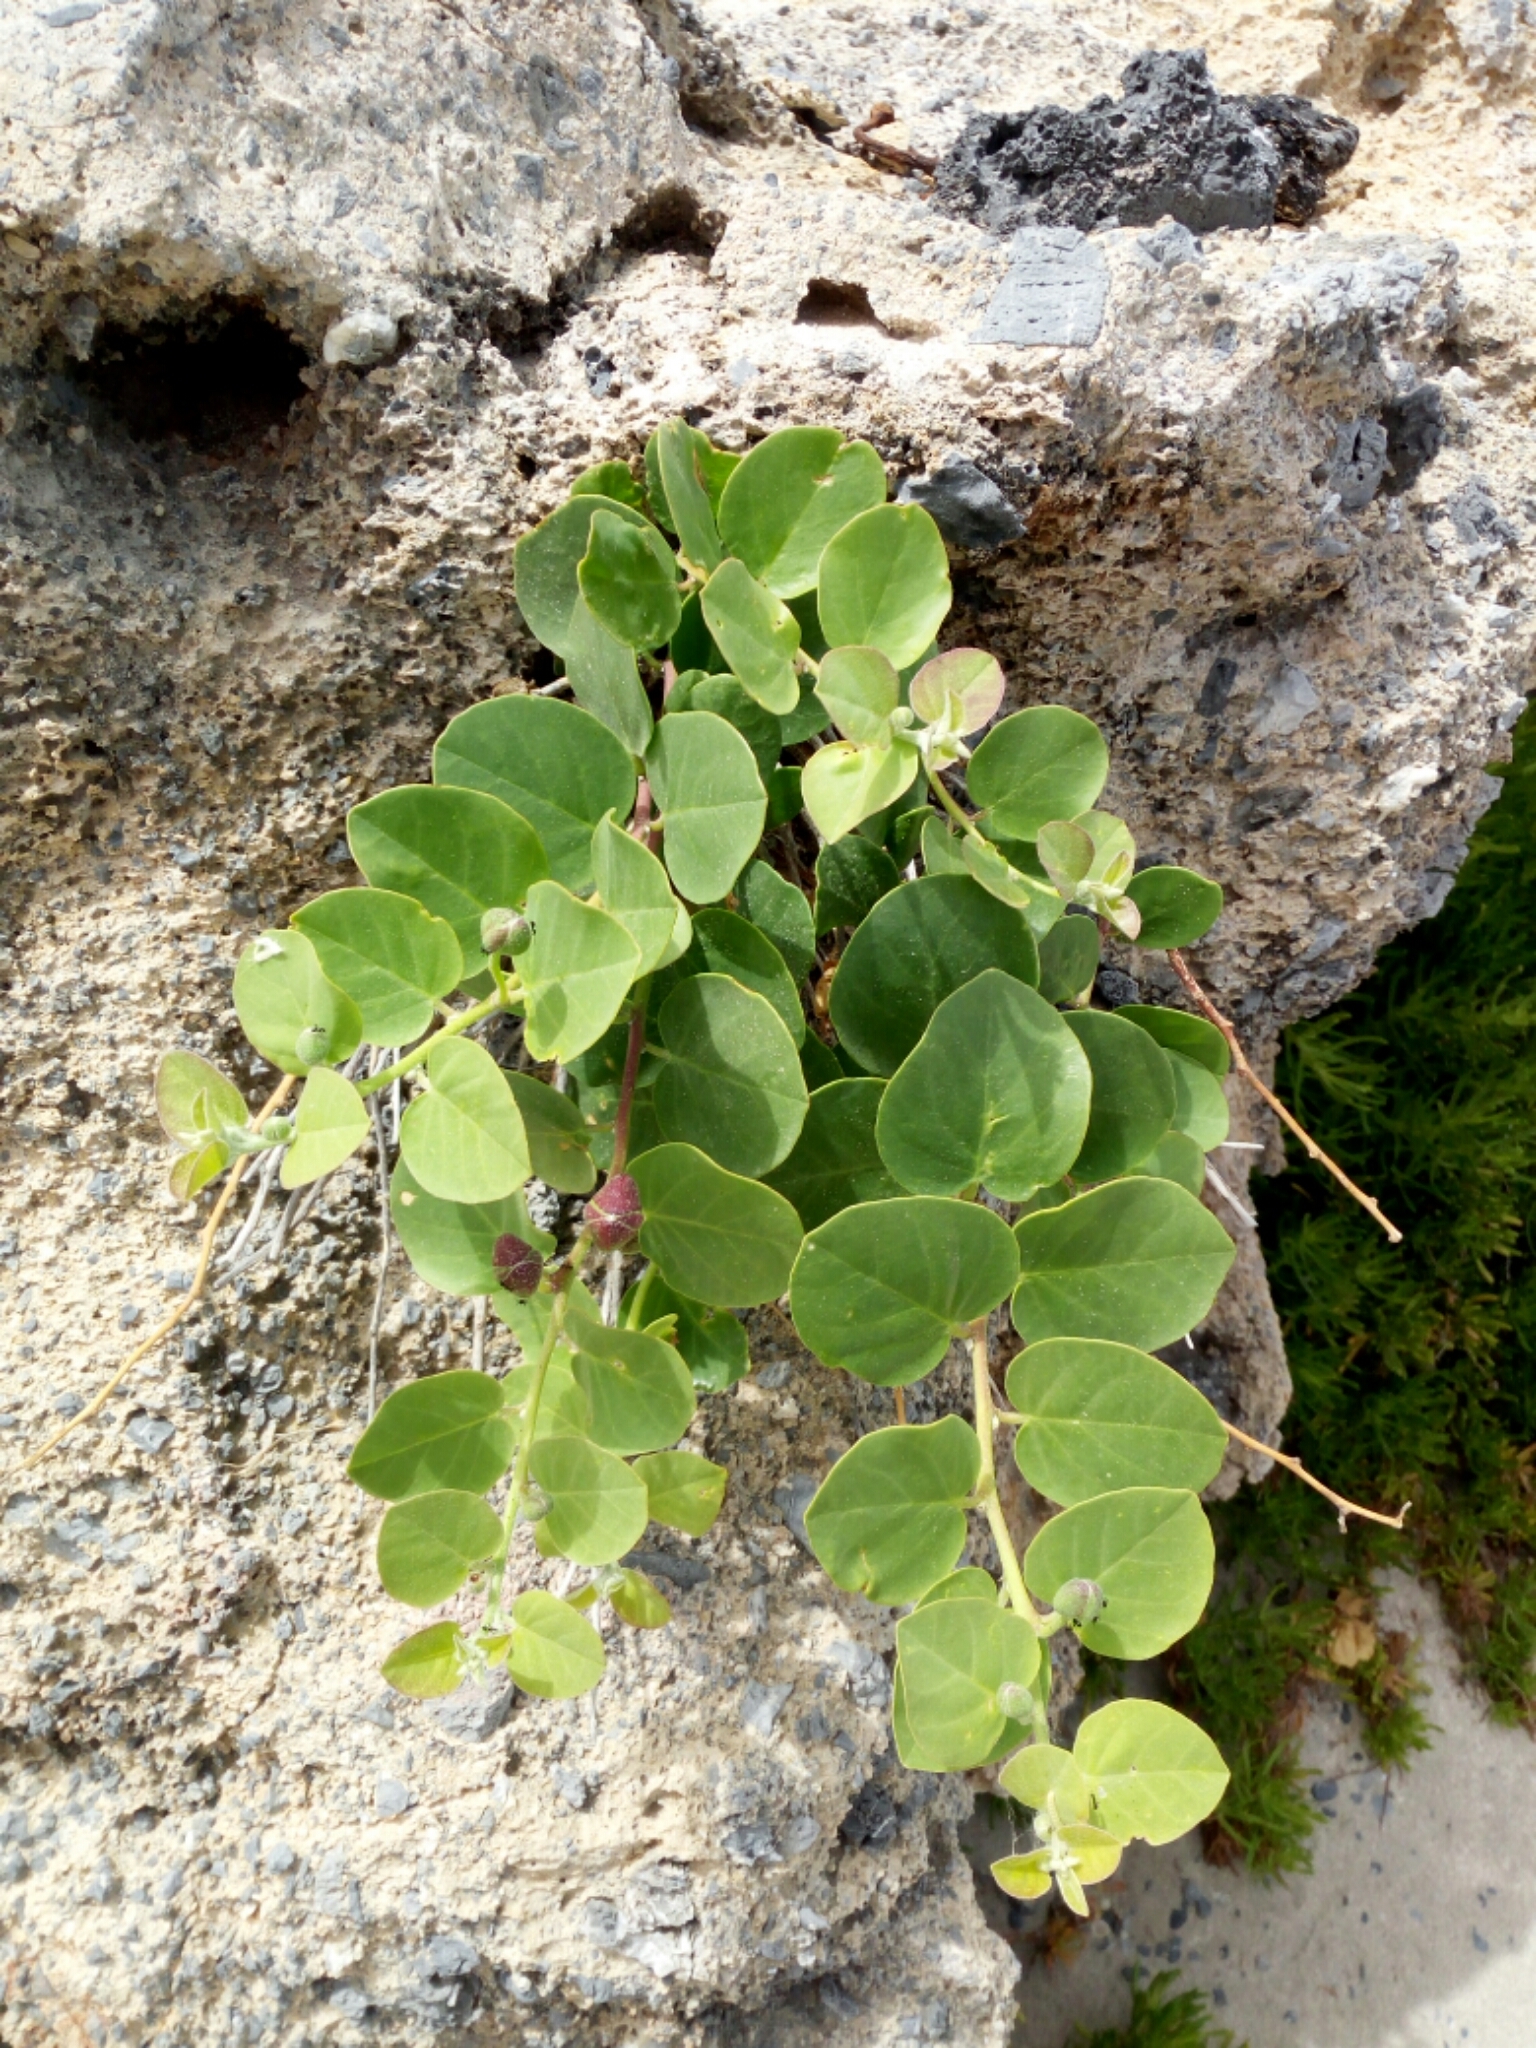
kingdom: Plantae
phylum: Tracheophyta
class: Magnoliopsida
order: Brassicales
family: Capparaceae
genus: Capparis
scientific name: Capparis orientalis
